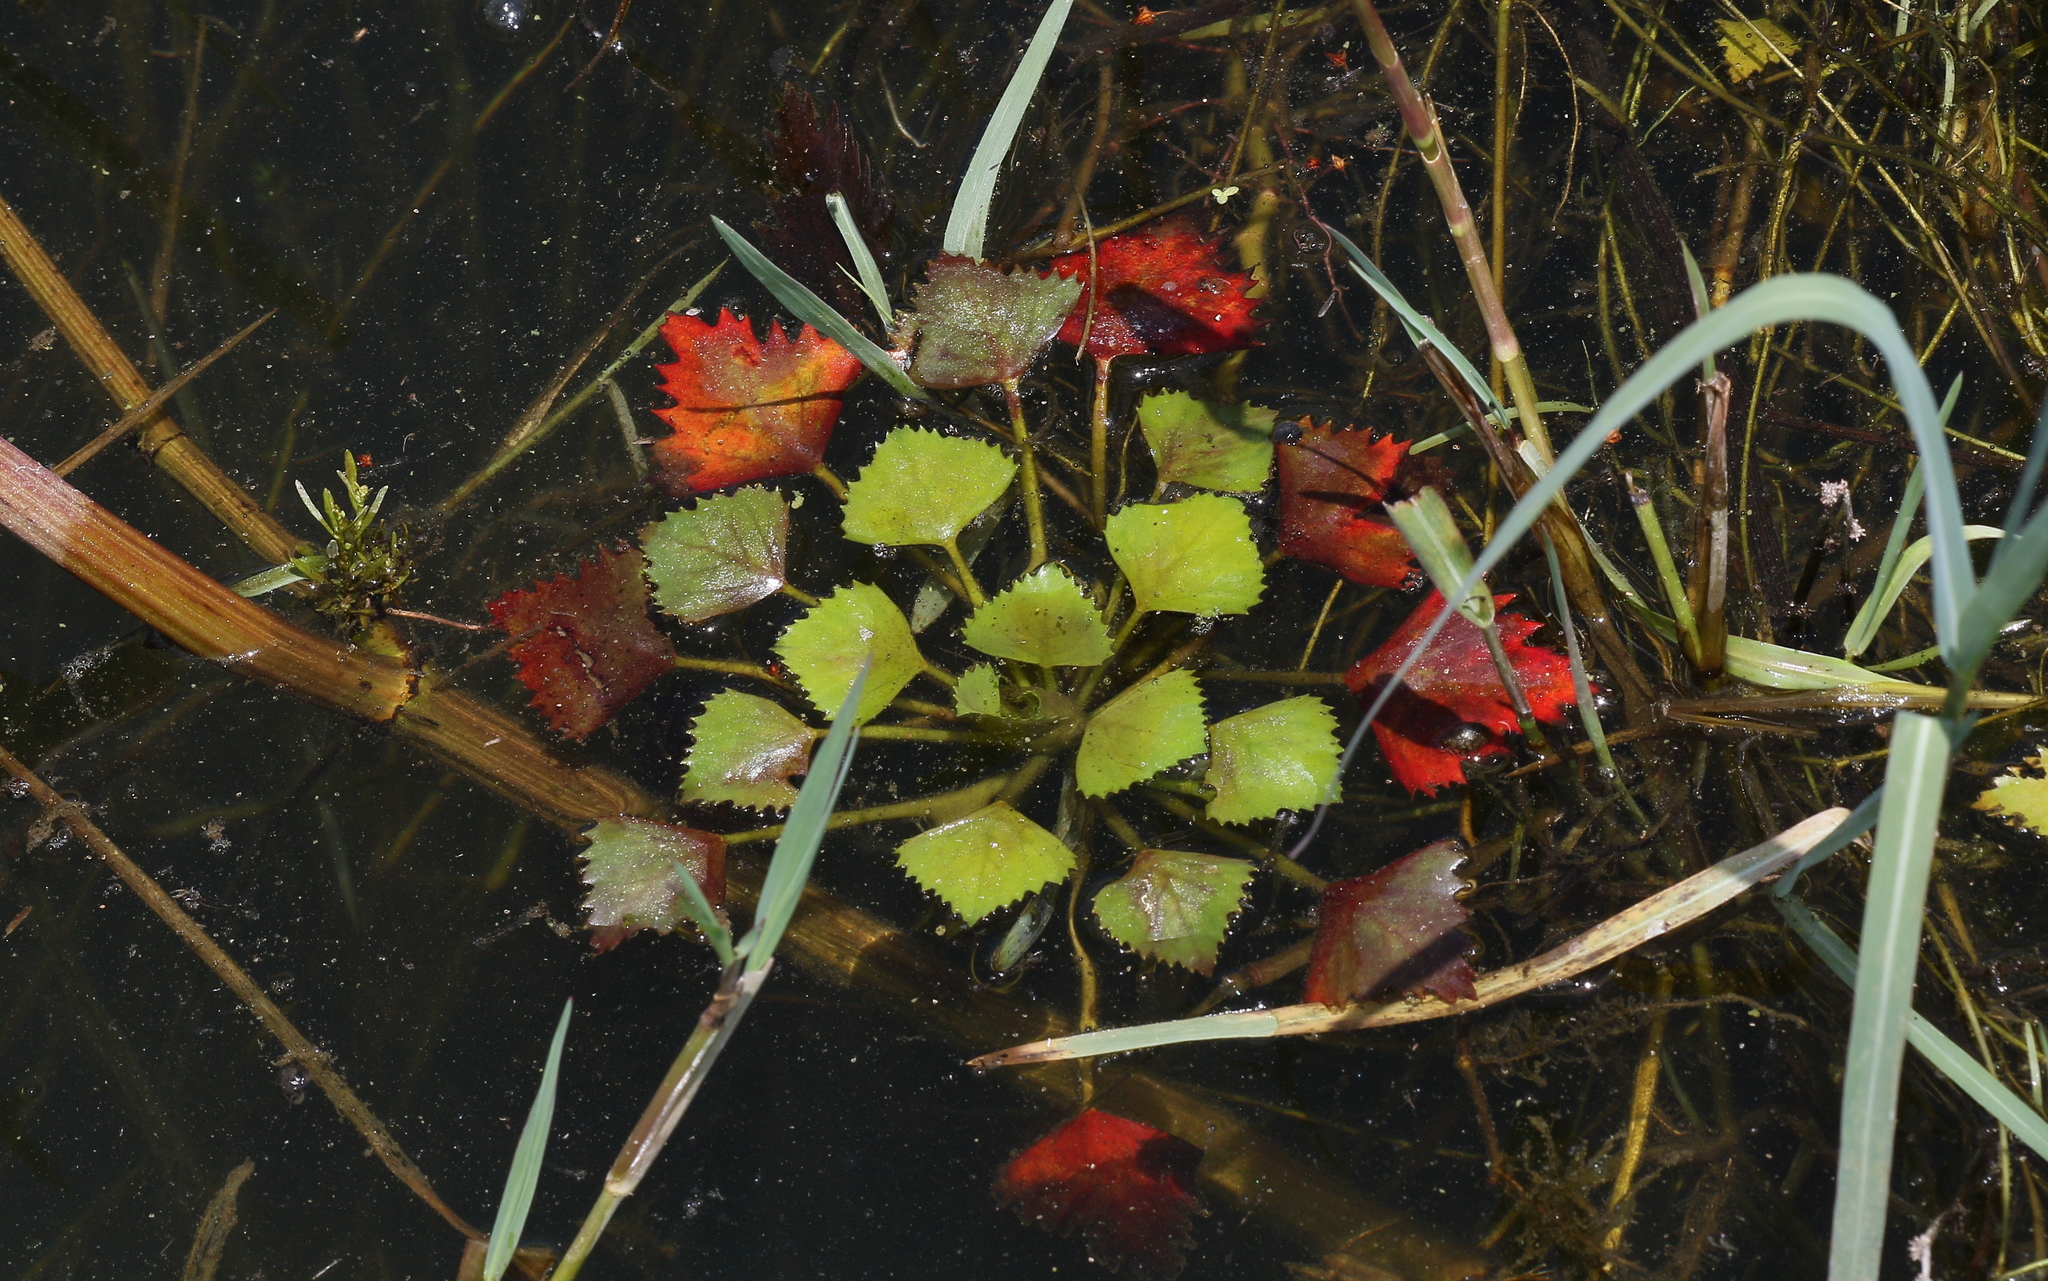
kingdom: Plantae
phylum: Tracheophyta
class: Magnoliopsida
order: Myrtales
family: Lythraceae
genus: Trapa
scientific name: Trapa natans
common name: Water chestnut
